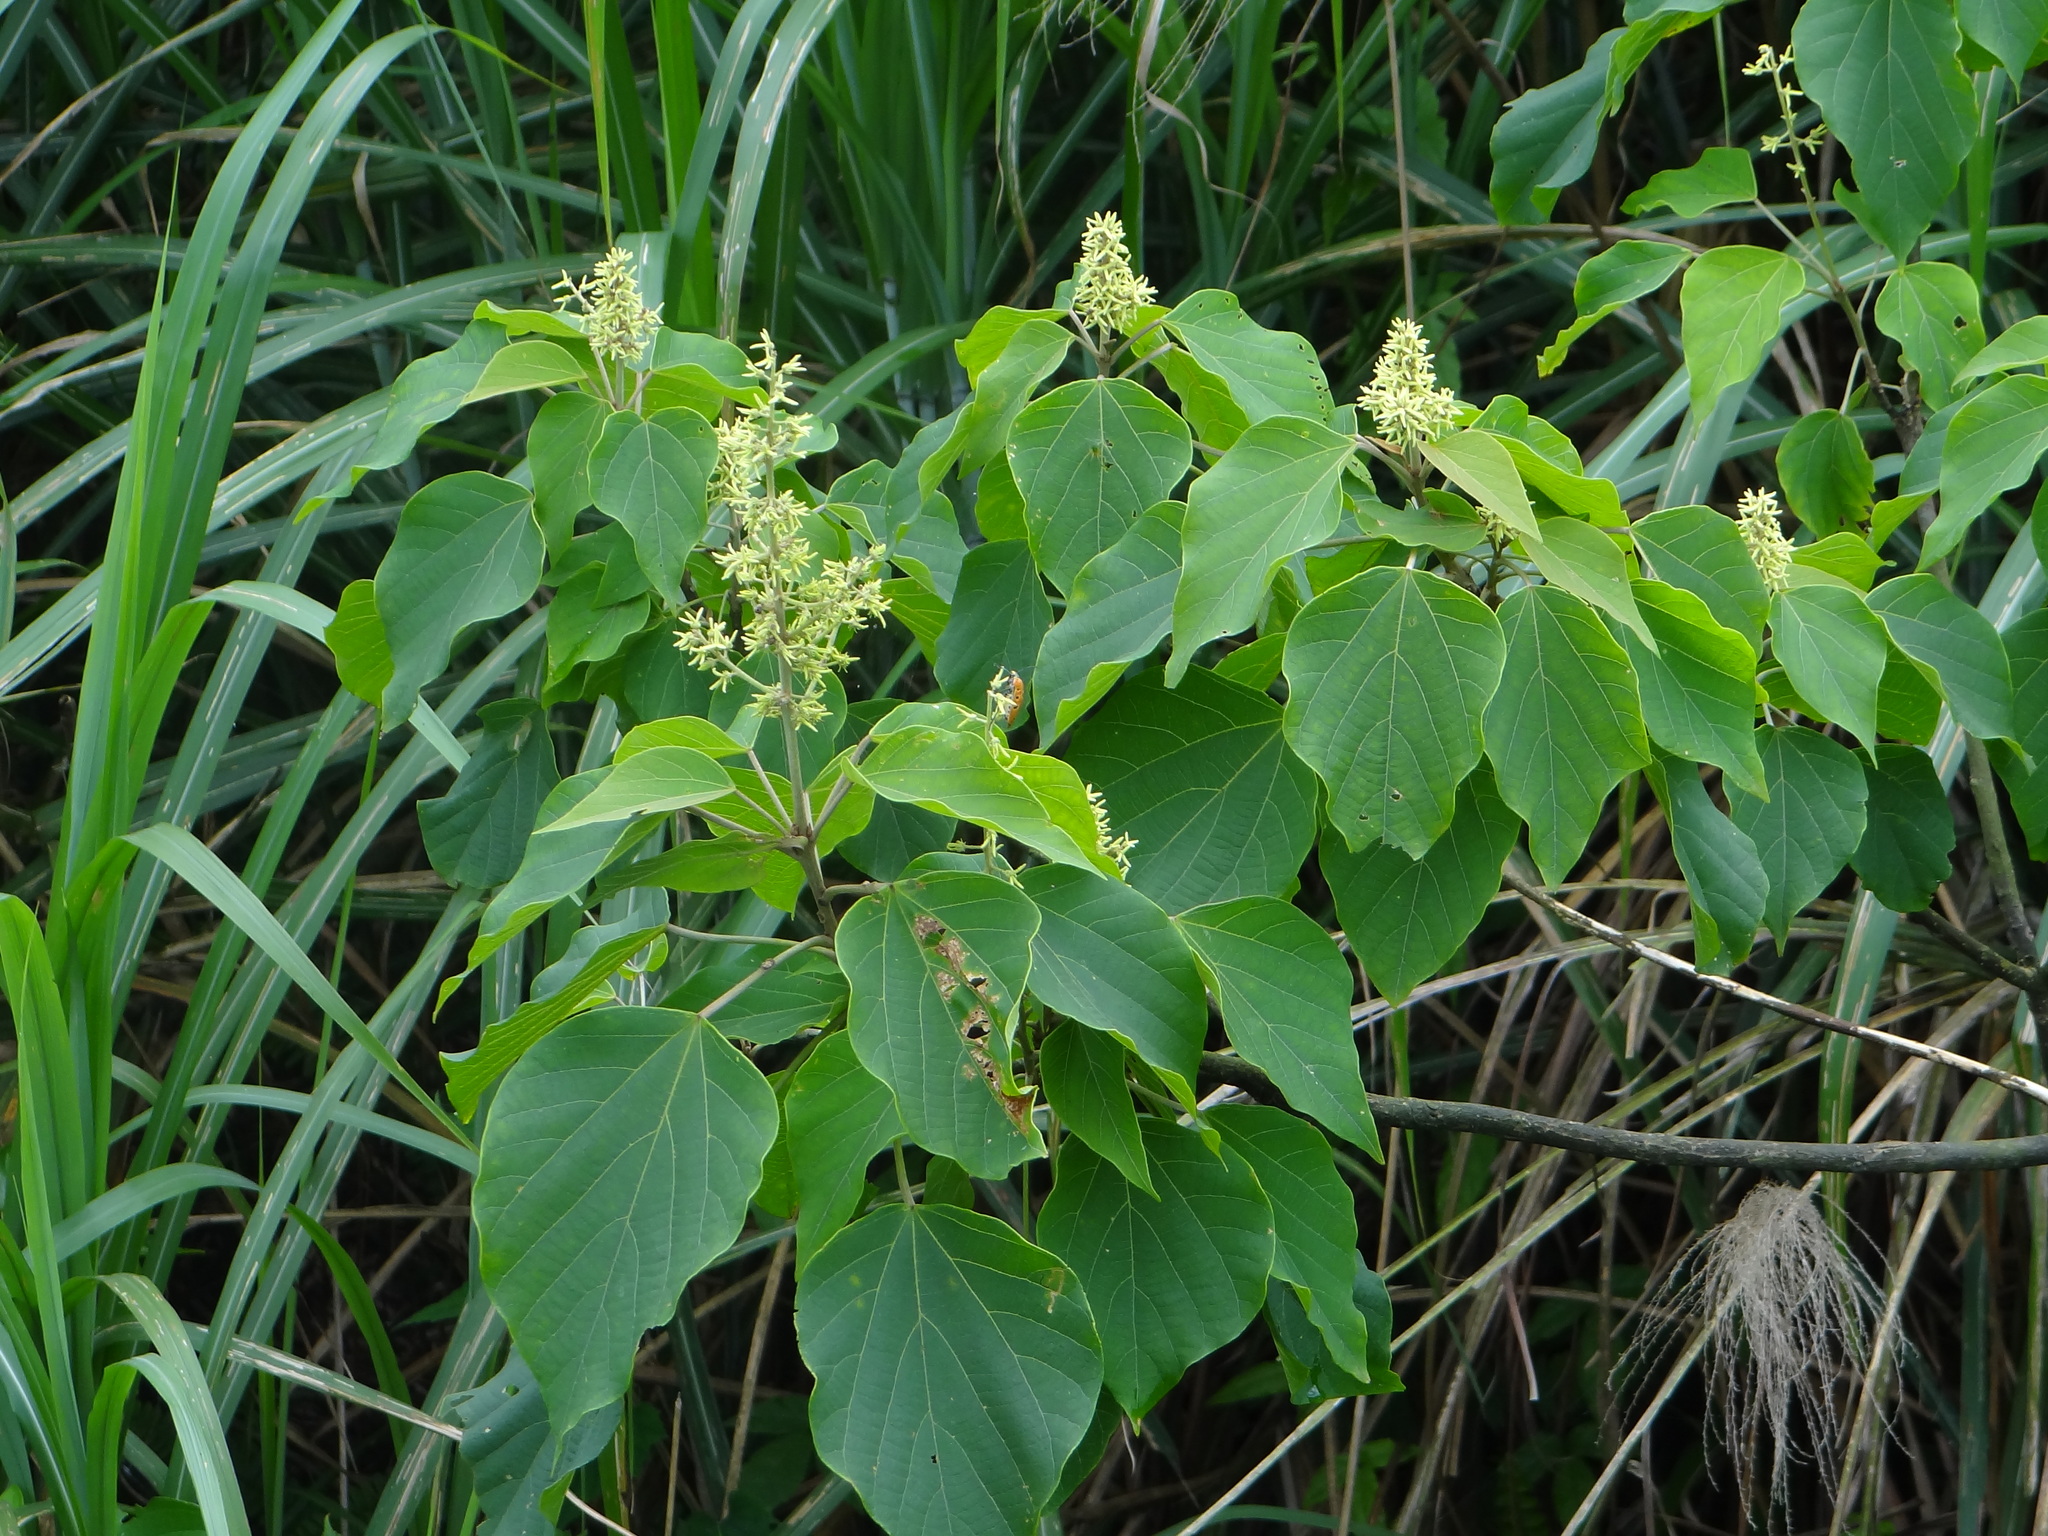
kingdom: Plantae
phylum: Tracheophyta
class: Magnoliopsida
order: Malpighiales
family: Euphorbiaceae
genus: Mallotus
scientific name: Mallotus japonicus
